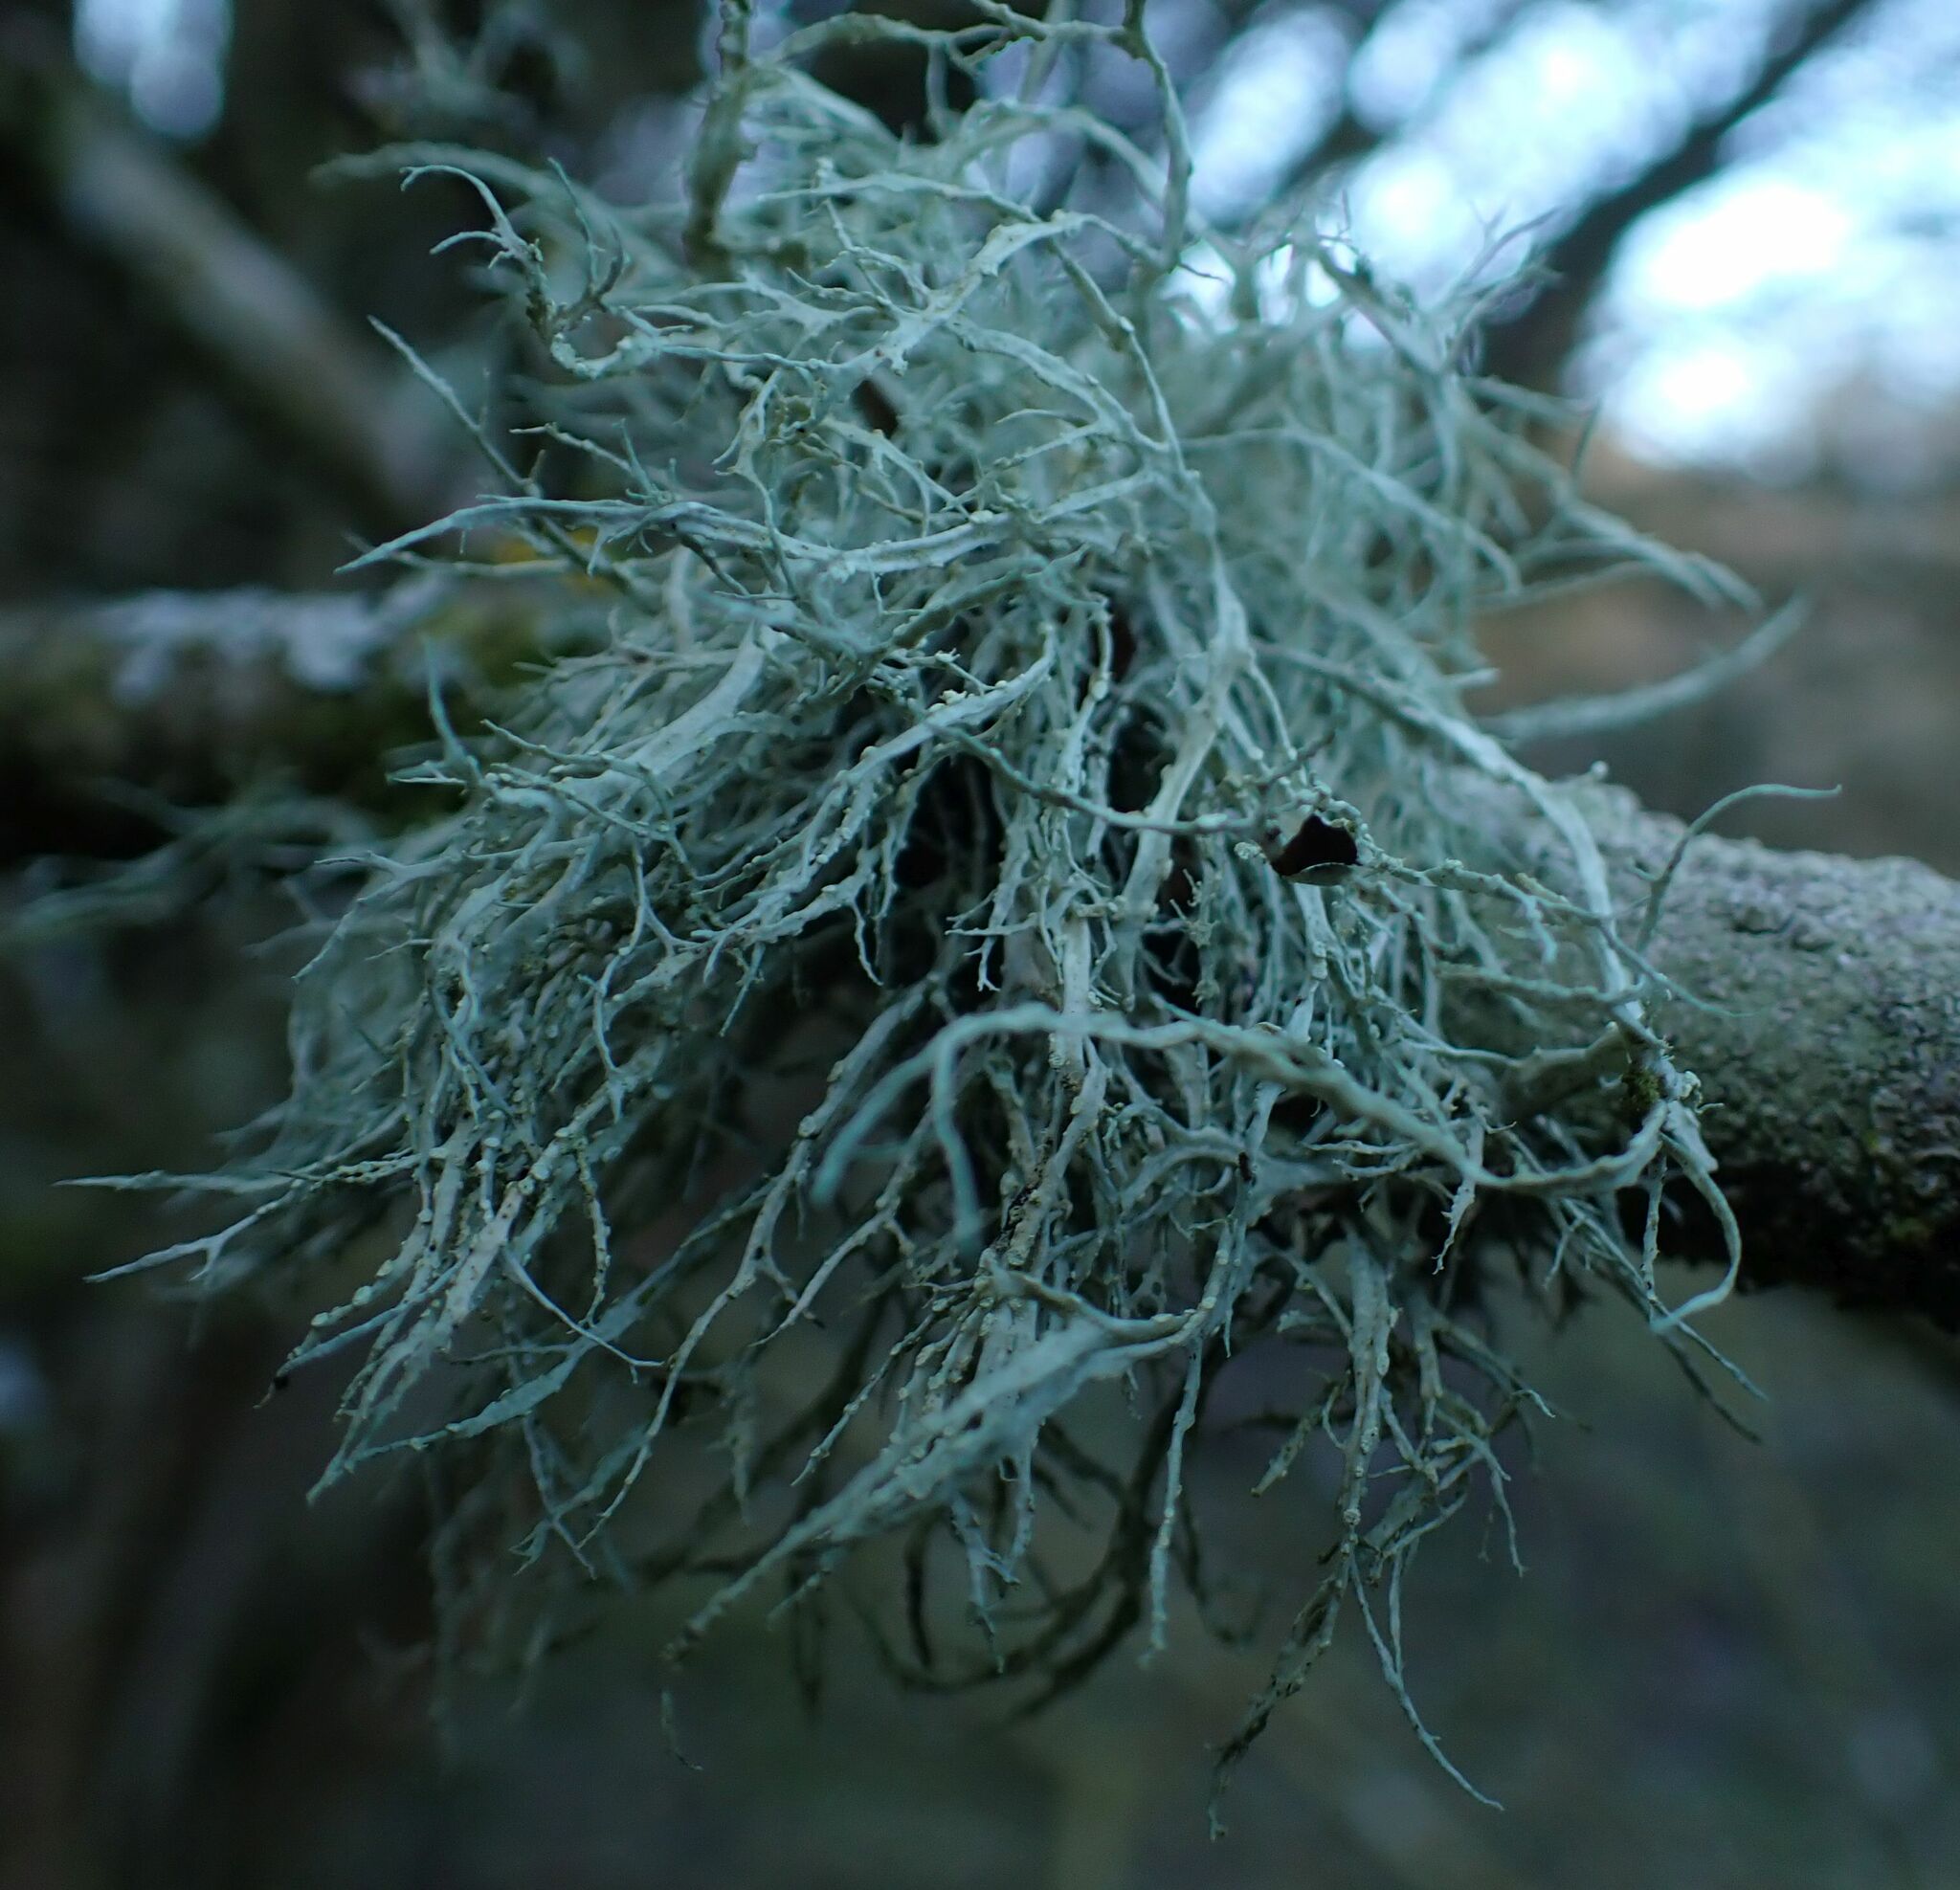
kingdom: Fungi
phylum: Ascomycota
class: Lecanoromycetes
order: Lecanorales
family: Ramalinaceae
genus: Ramalina
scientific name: Ramalina farinacea
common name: Farinose cartilage lichen
